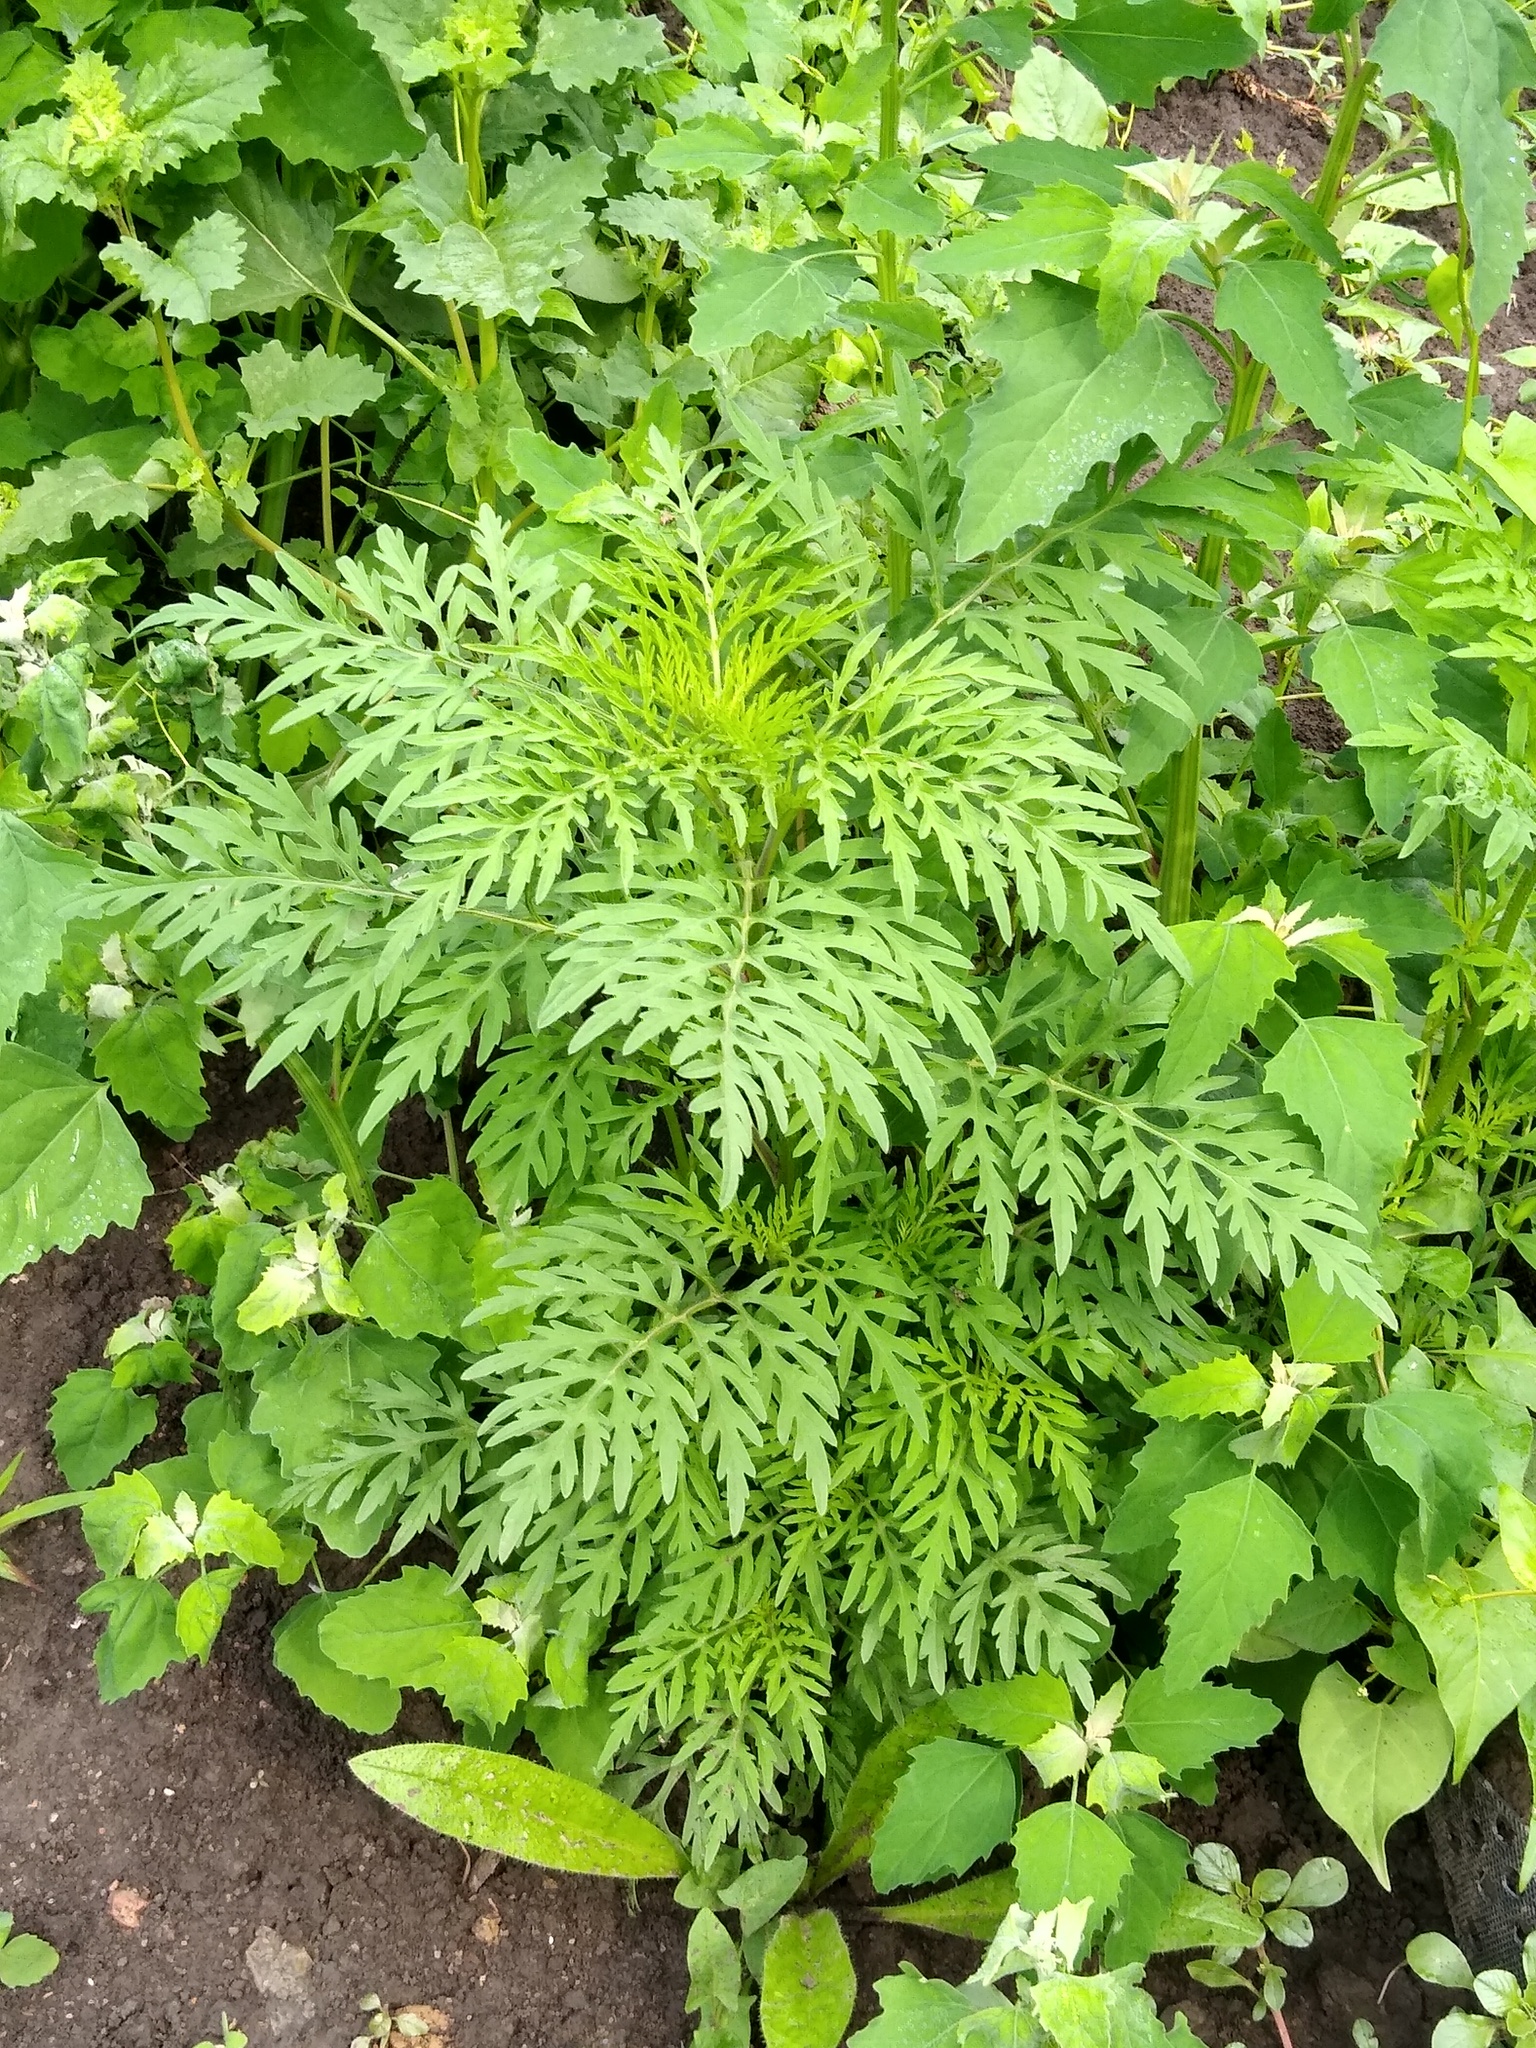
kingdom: Plantae
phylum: Tracheophyta
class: Magnoliopsida
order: Asterales
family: Asteraceae
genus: Ambrosia
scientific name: Ambrosia artemisiifolia
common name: Annual ragweed
